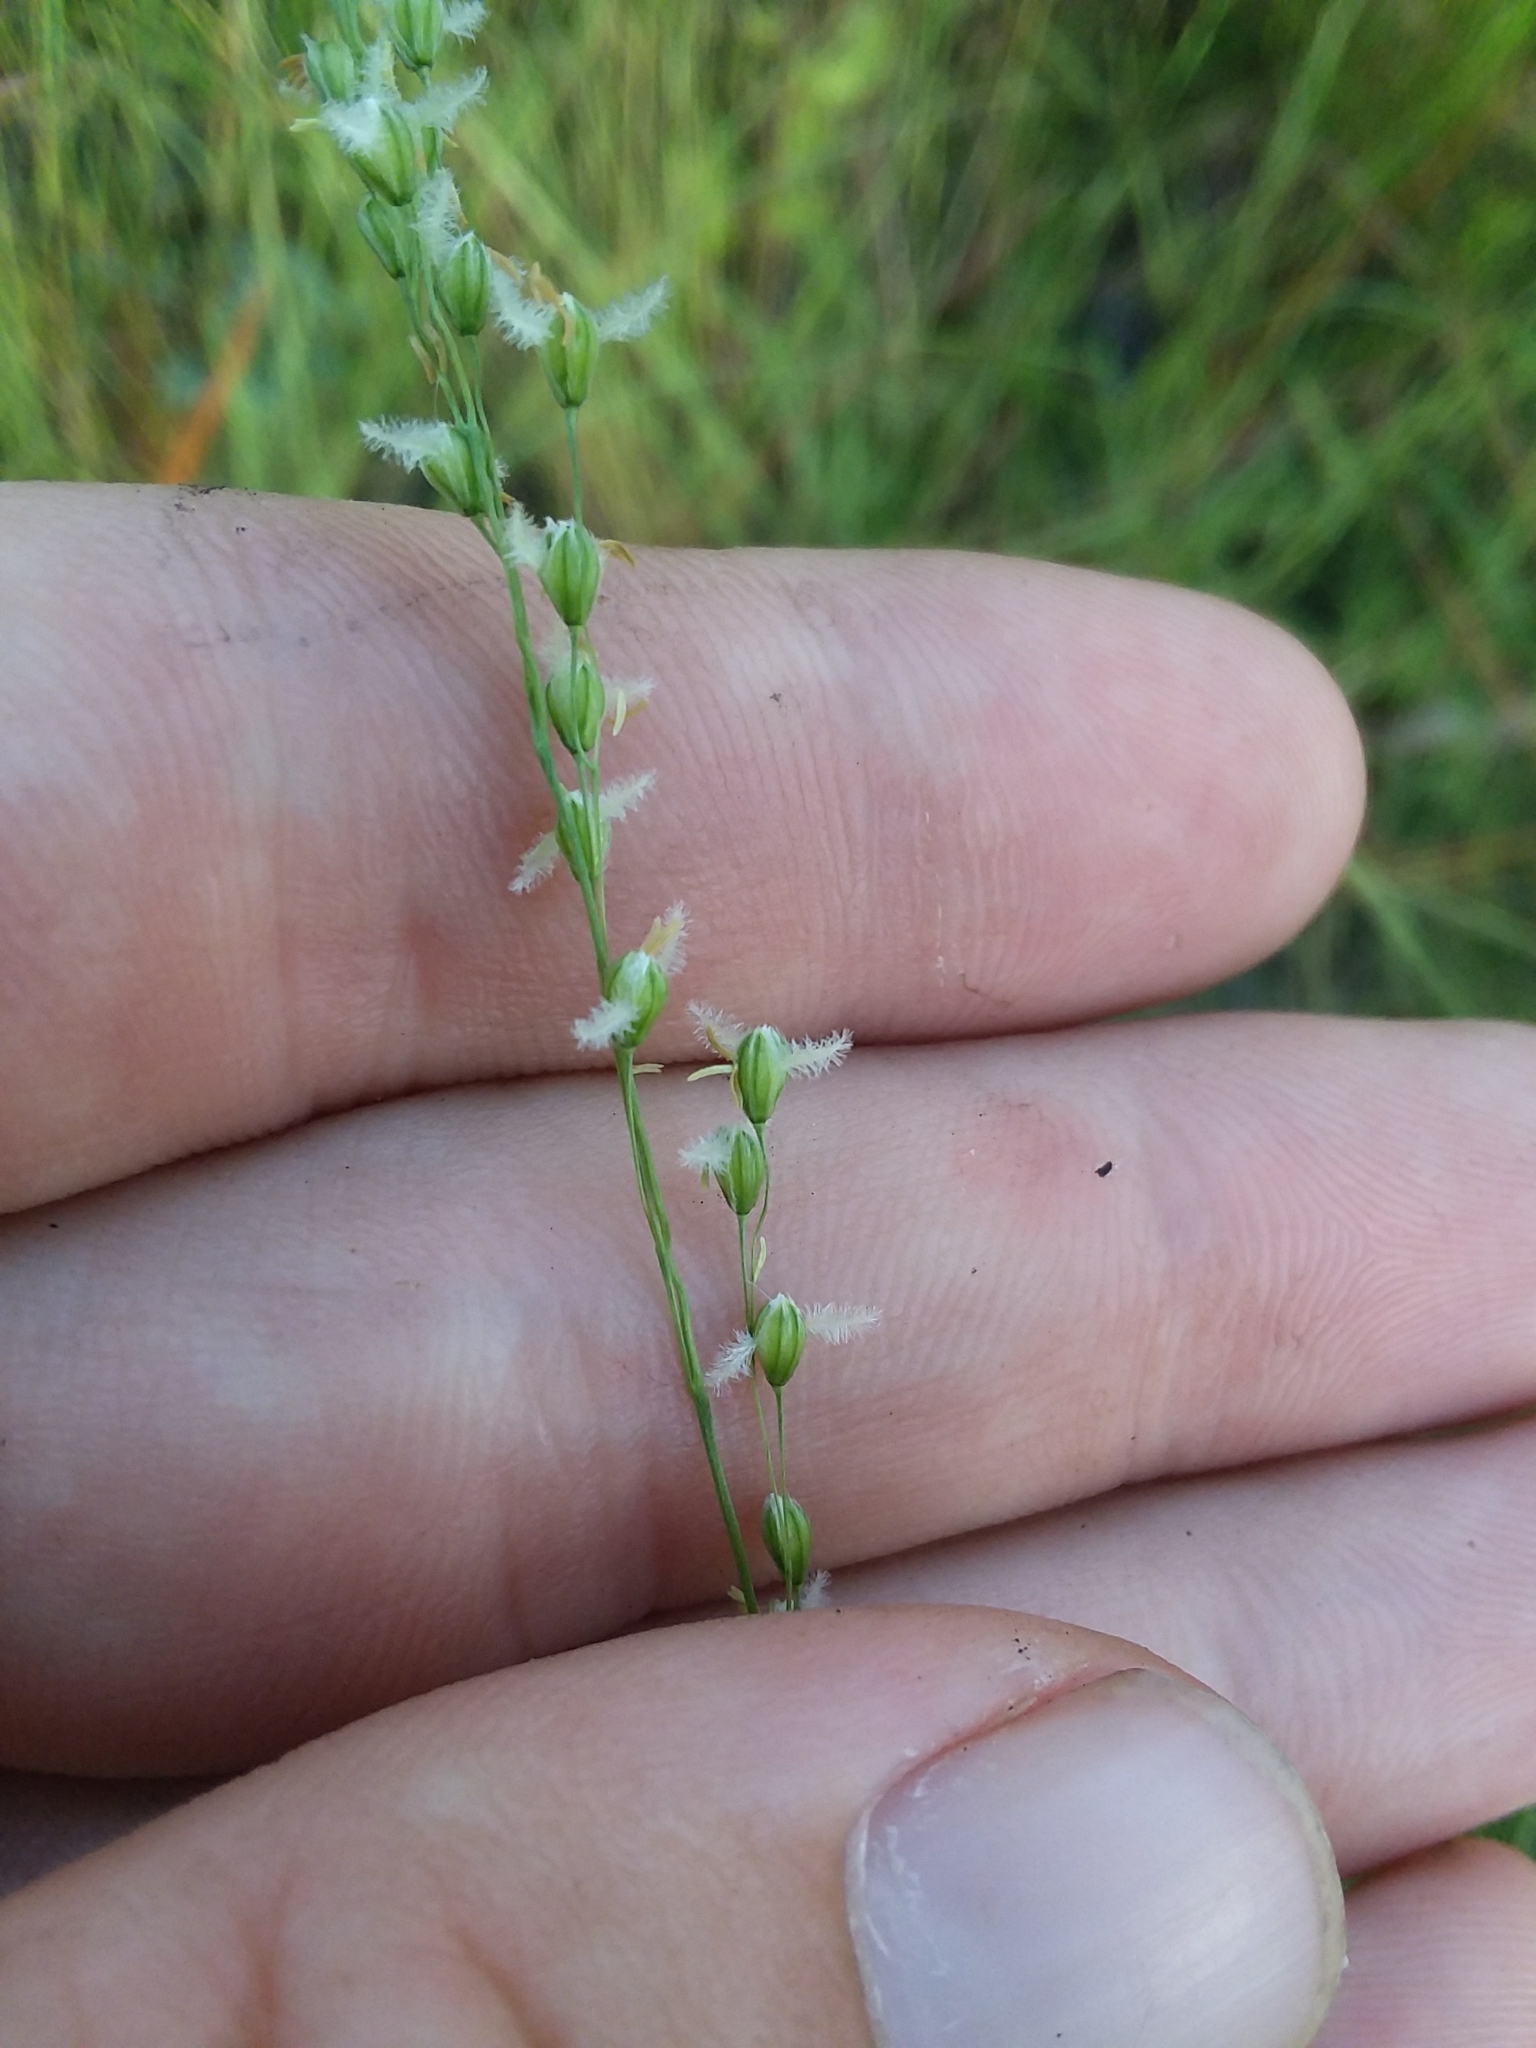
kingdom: Plantae
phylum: Tracheophyta
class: Liliopsida
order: Poales
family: Poaceae
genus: Anthenantia
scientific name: Anthenantia villosa
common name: Green silkyscale
